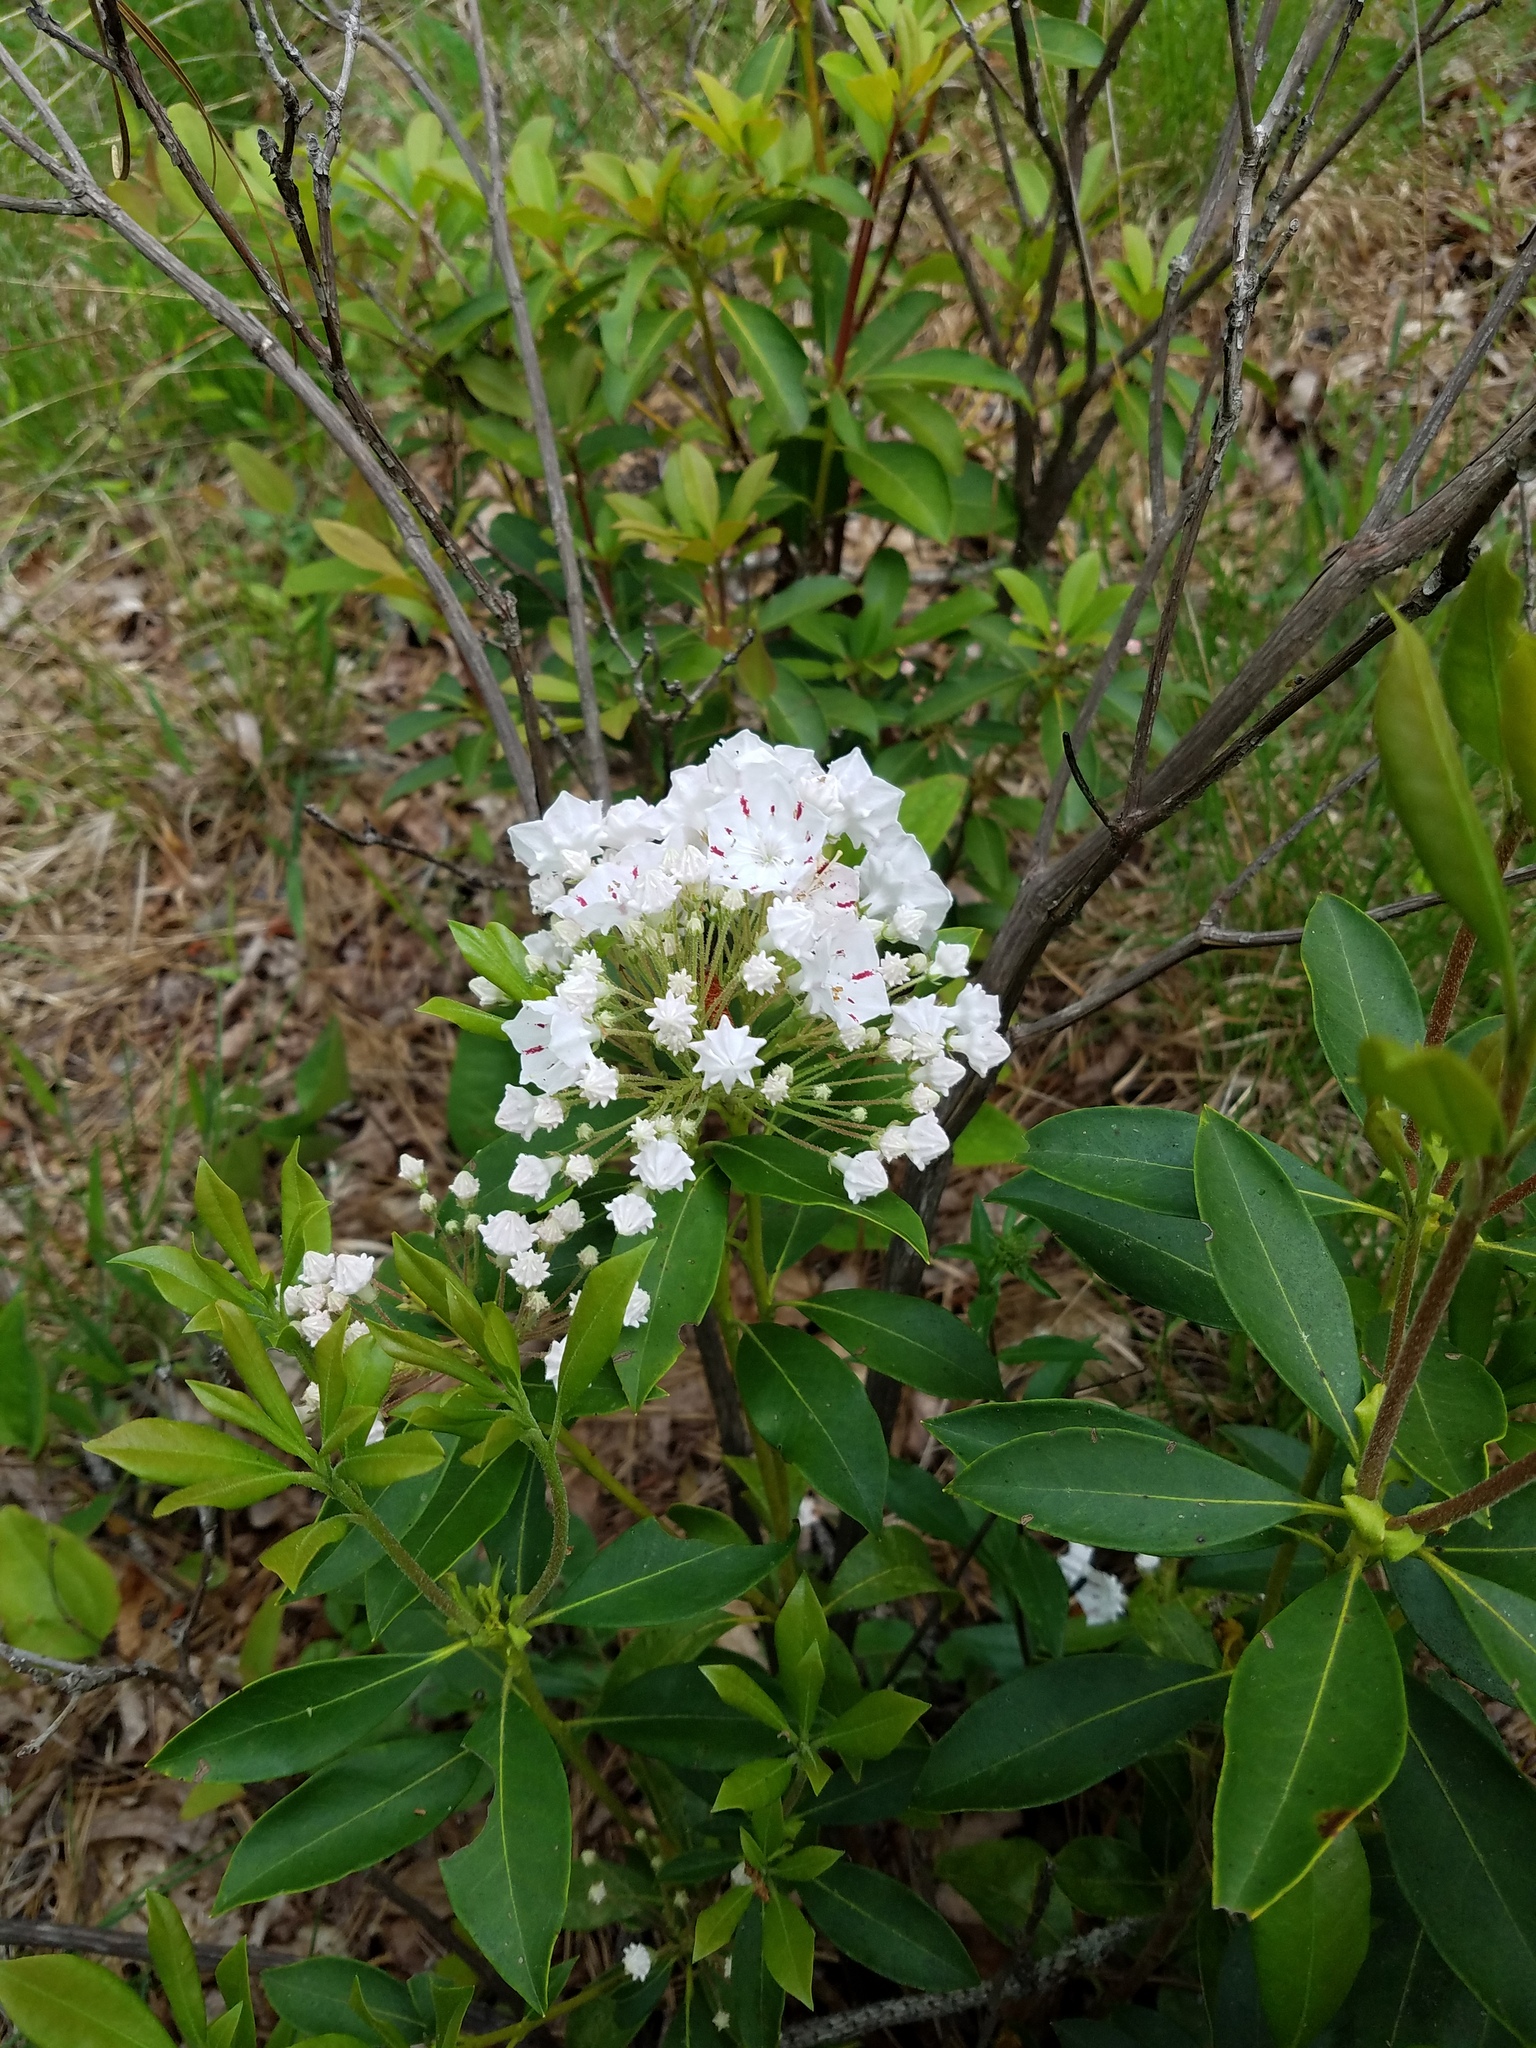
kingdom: Plantae
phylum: Tracheophyta
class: Magnoliopsida
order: Ericales
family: Ericaceae
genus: Kalmia
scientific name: Kalmia latifolia
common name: Mountain-laurel
